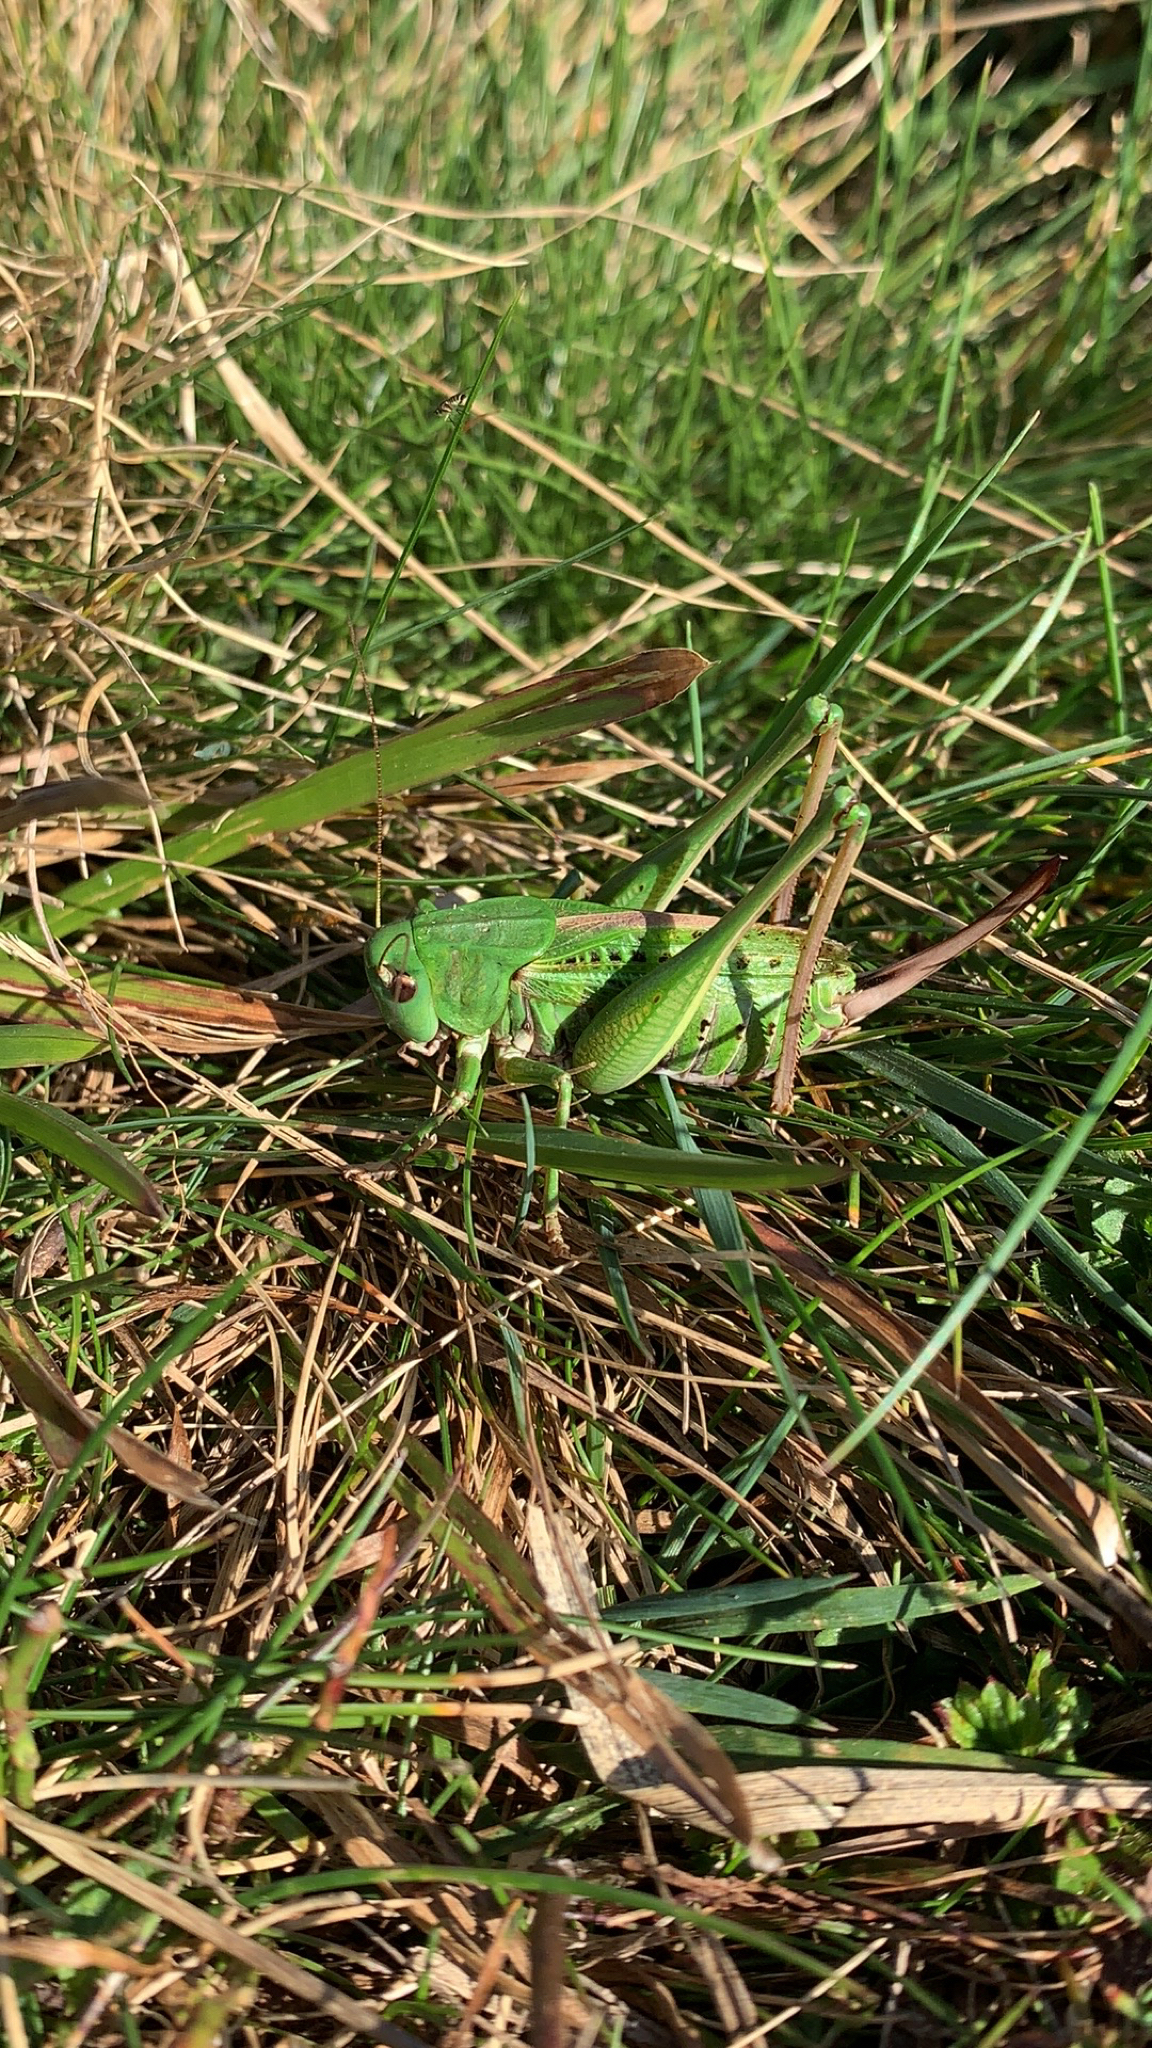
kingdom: Animalia
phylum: Arthropoda
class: Insecta
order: Orthoptera
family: Tettigoniidae
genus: Decticus
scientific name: Decticus verrucivorus
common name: Wart-biter
